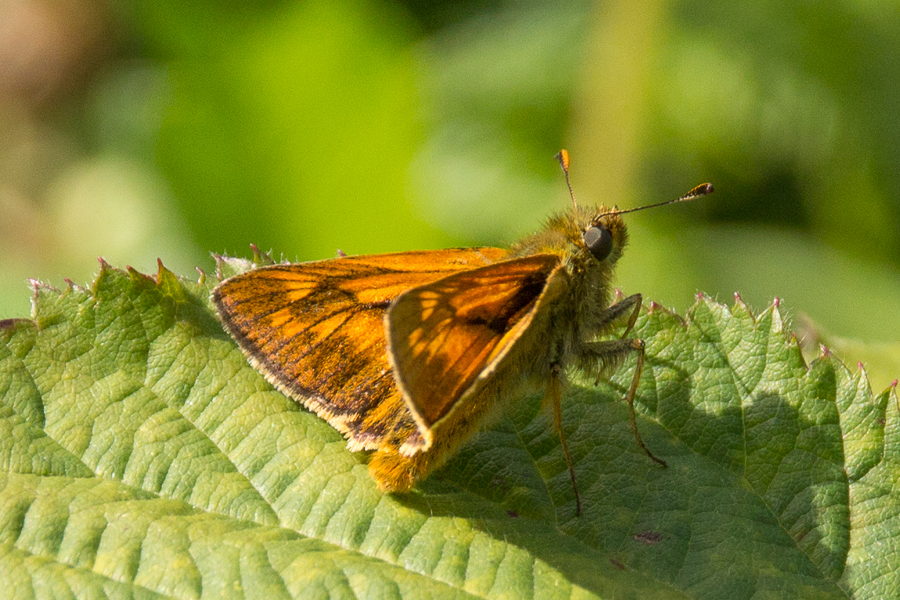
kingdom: Animalia
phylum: Arthropoda
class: Insecta
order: Lepidoptera
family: Hesperiidae
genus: Ochlodes
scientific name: Ochlodes venata
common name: Large skipper
